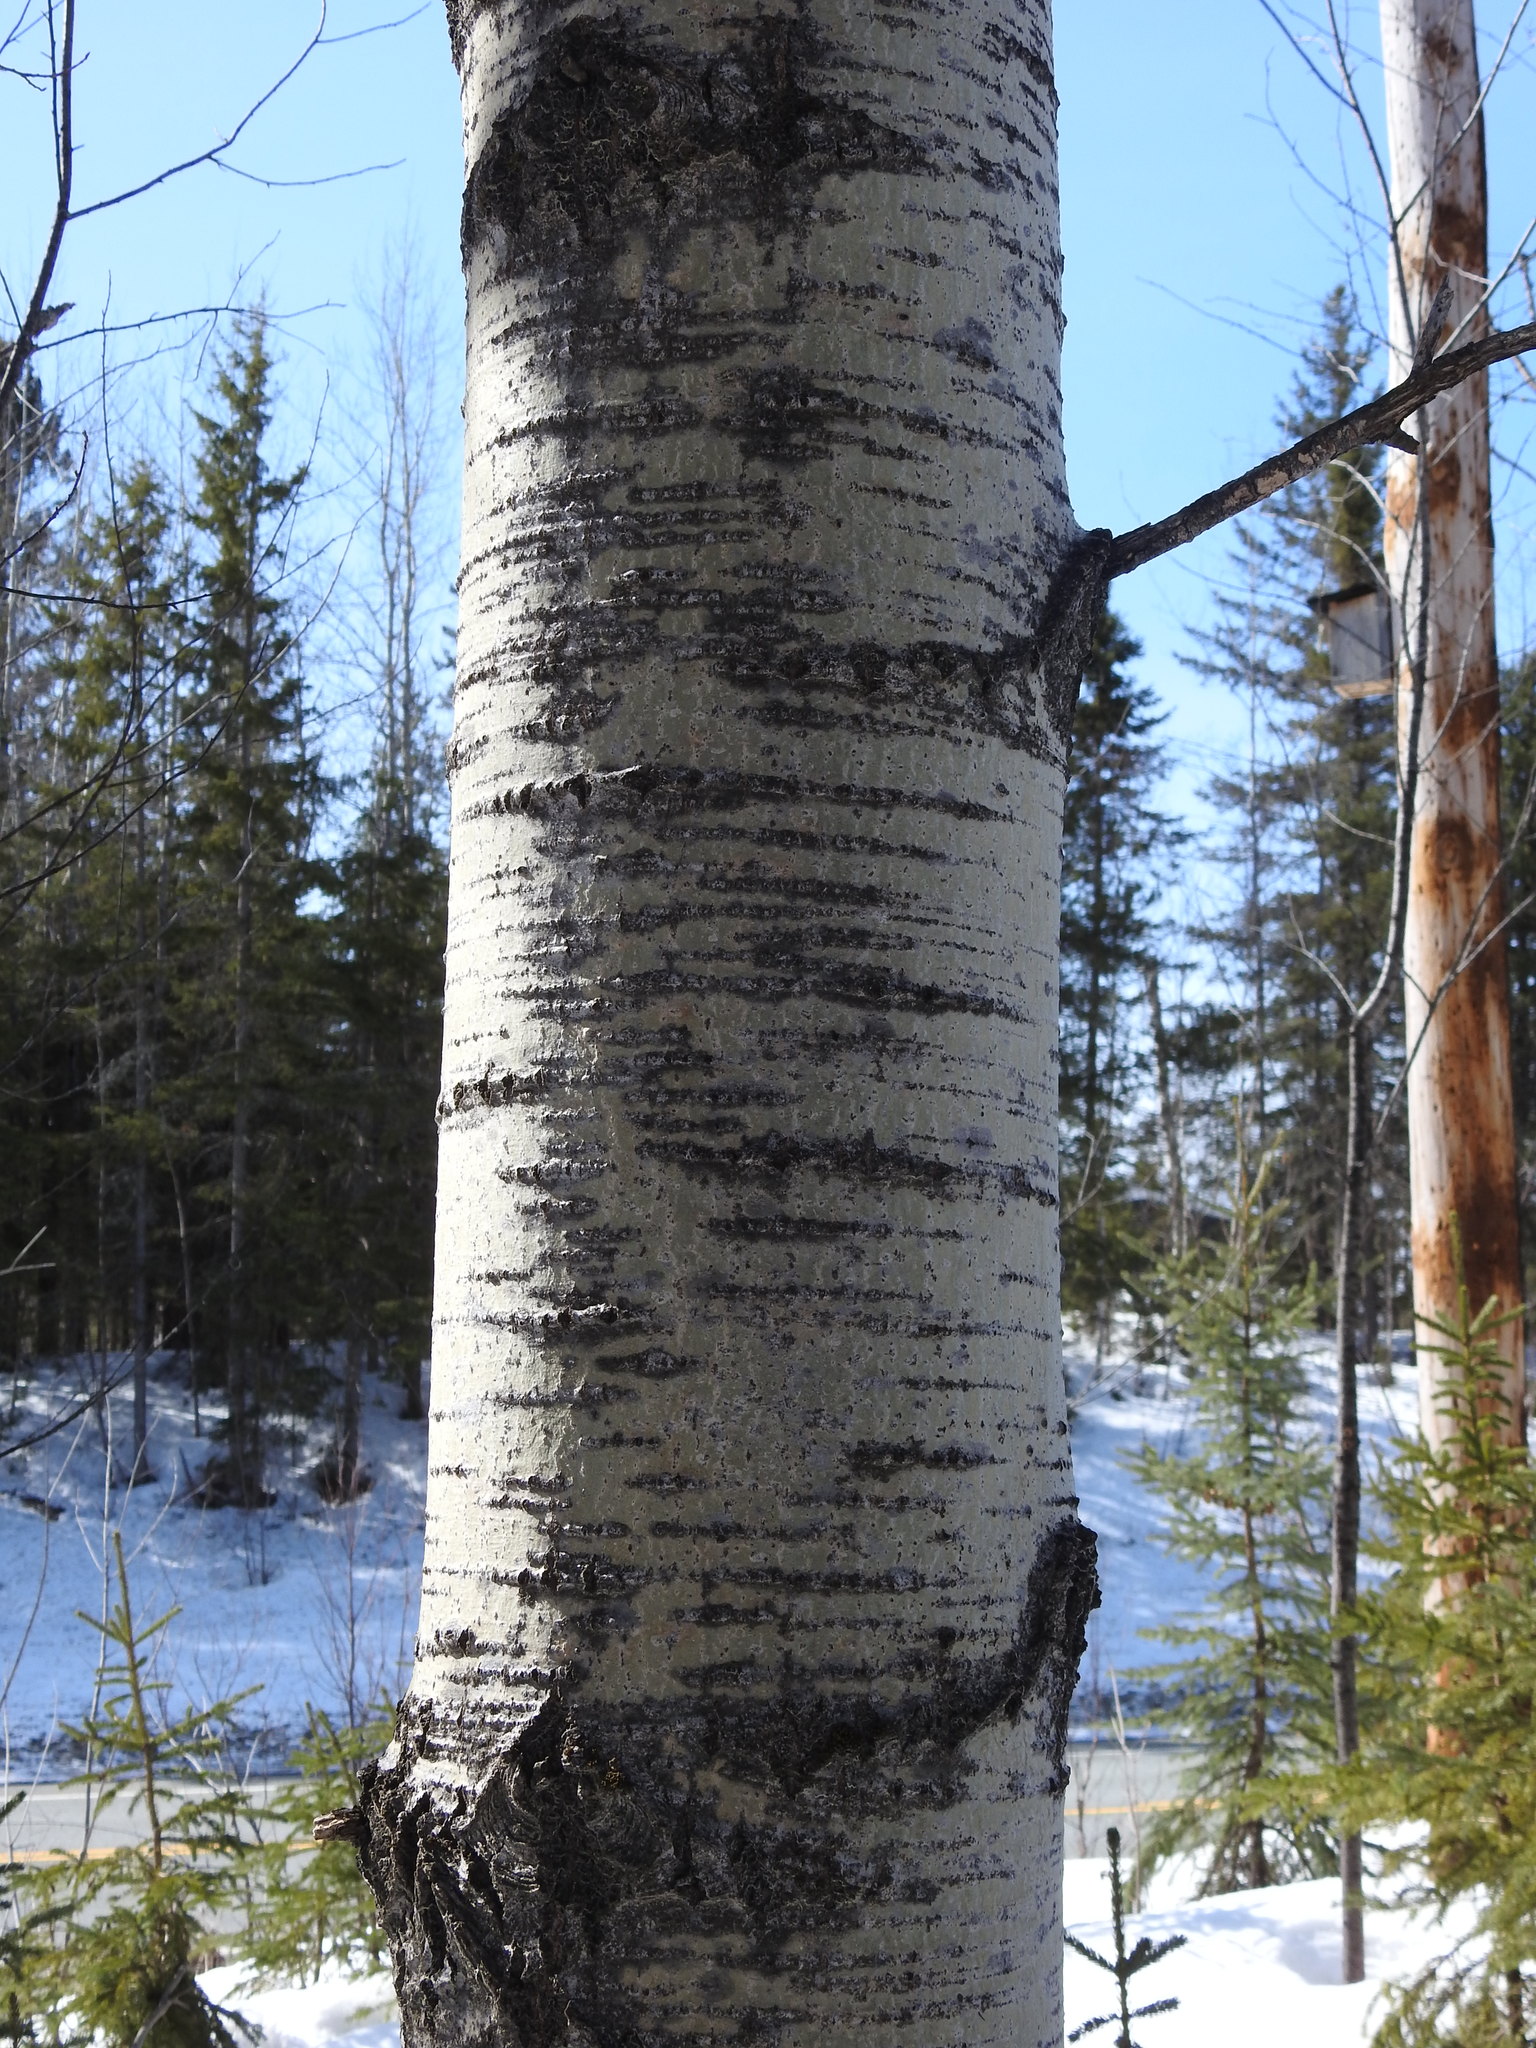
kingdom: Plantae
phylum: Tracheophyta
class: Magnoliopsida
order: Malpighiales
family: Salicaceae
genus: Populus
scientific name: Populus tremuloides
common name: Quaking aspen
